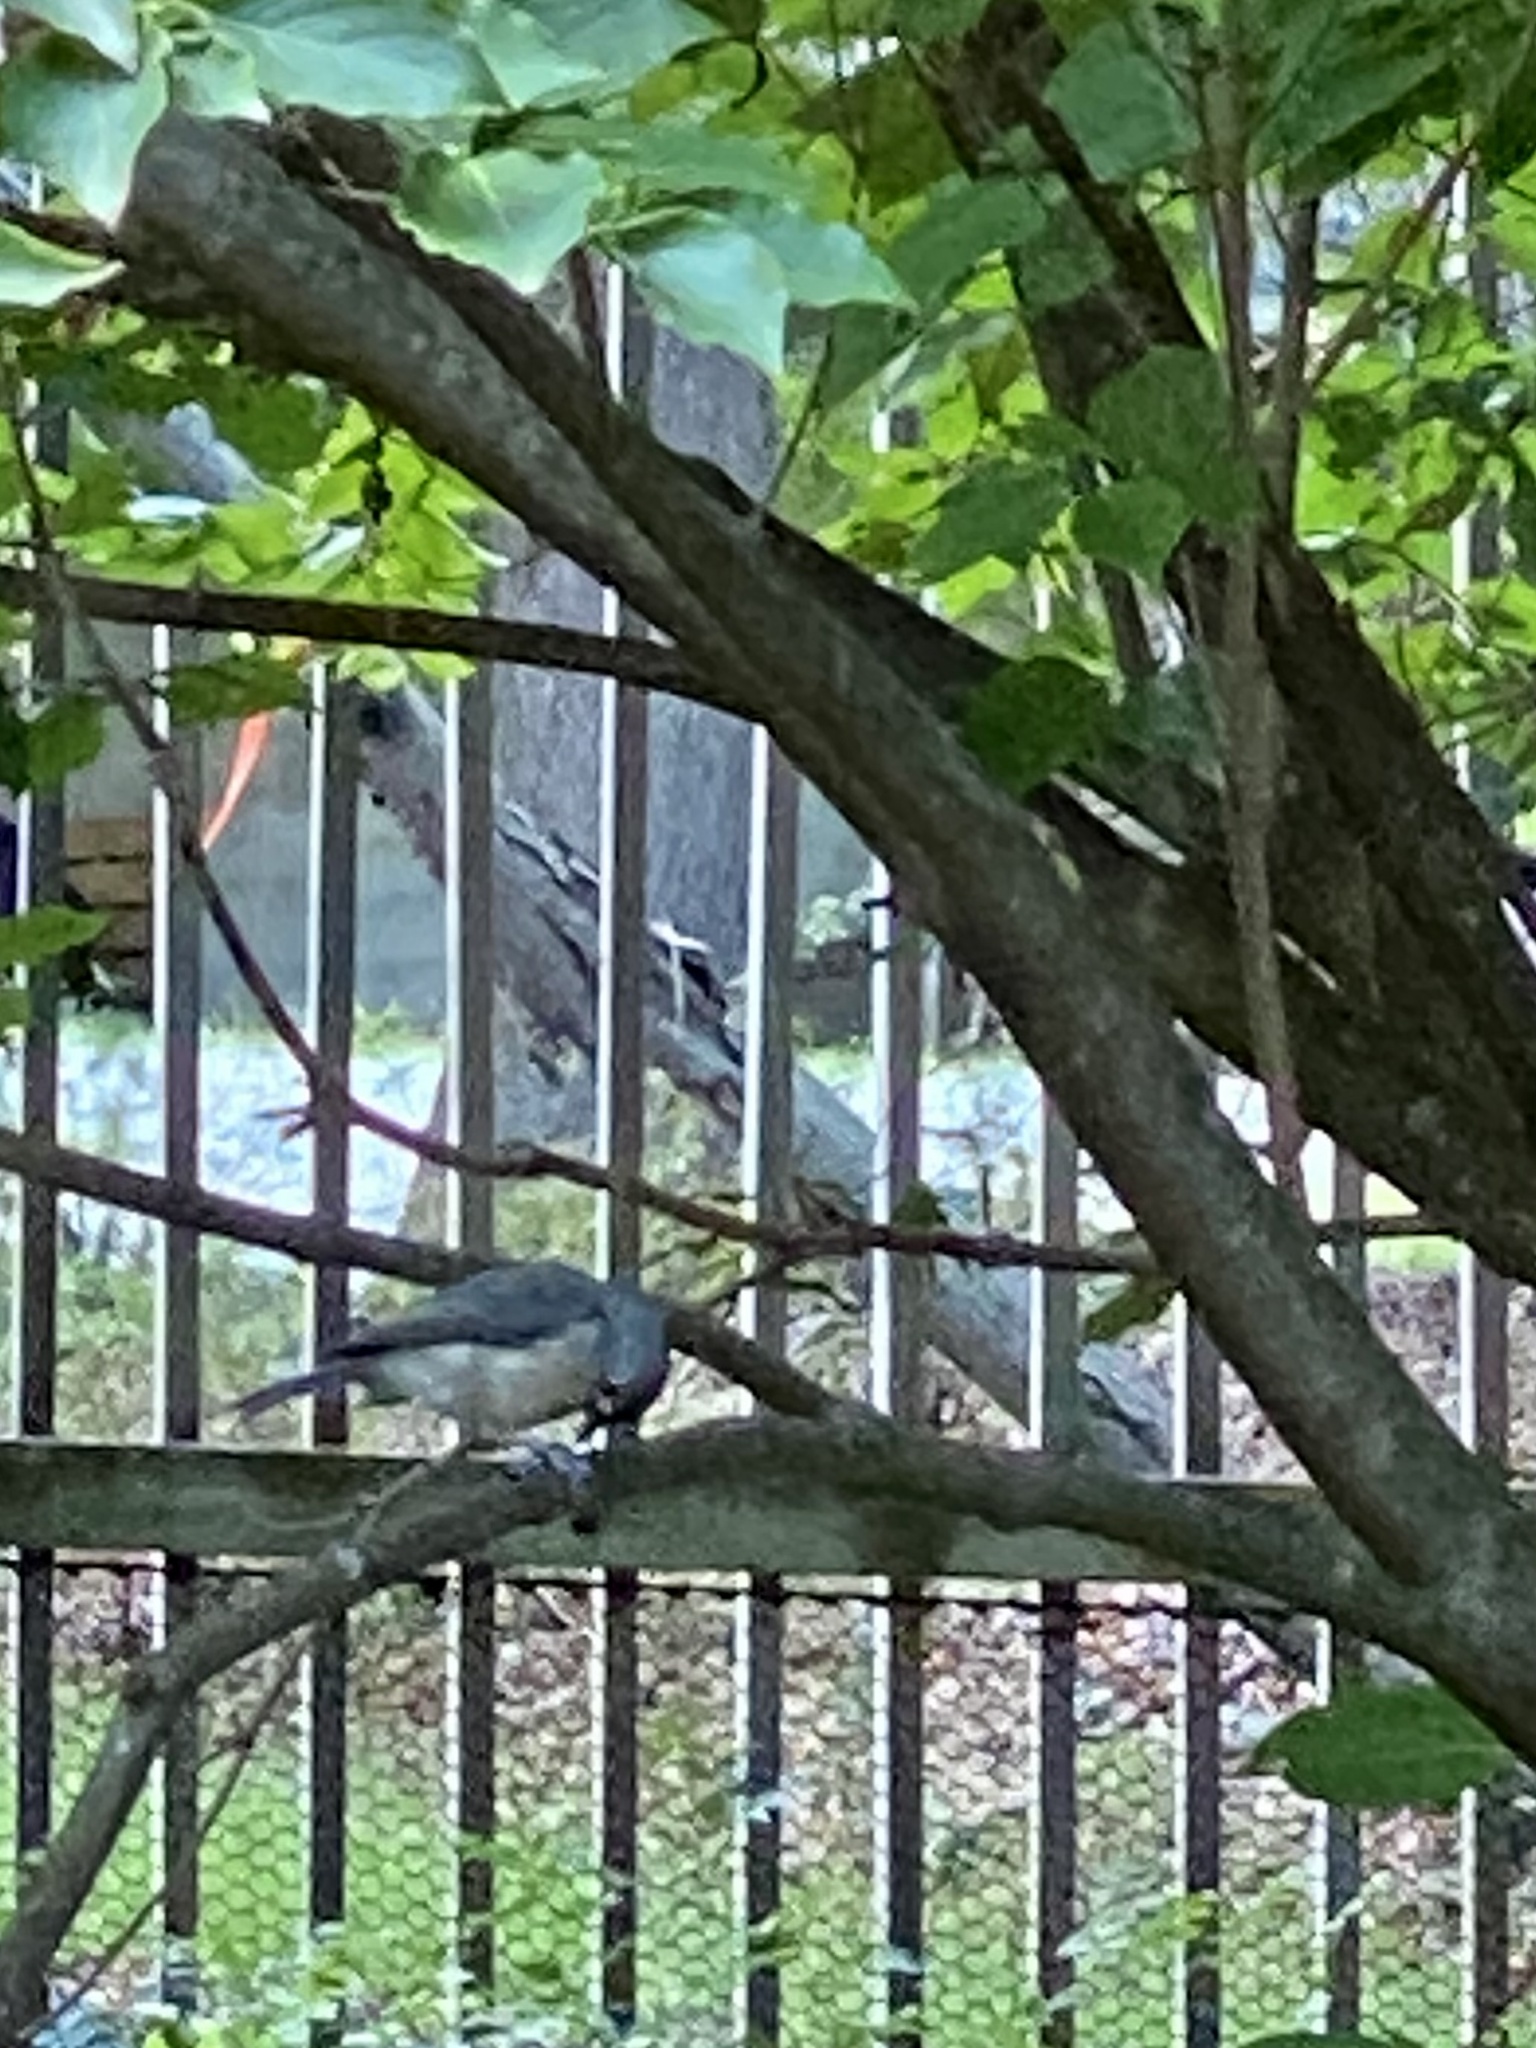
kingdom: Animalia
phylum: Chordata
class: Aves
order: Passeriformes
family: Paridae
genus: Baeolophus
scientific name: Baeolophus bicolor
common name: Tufted titmouse
